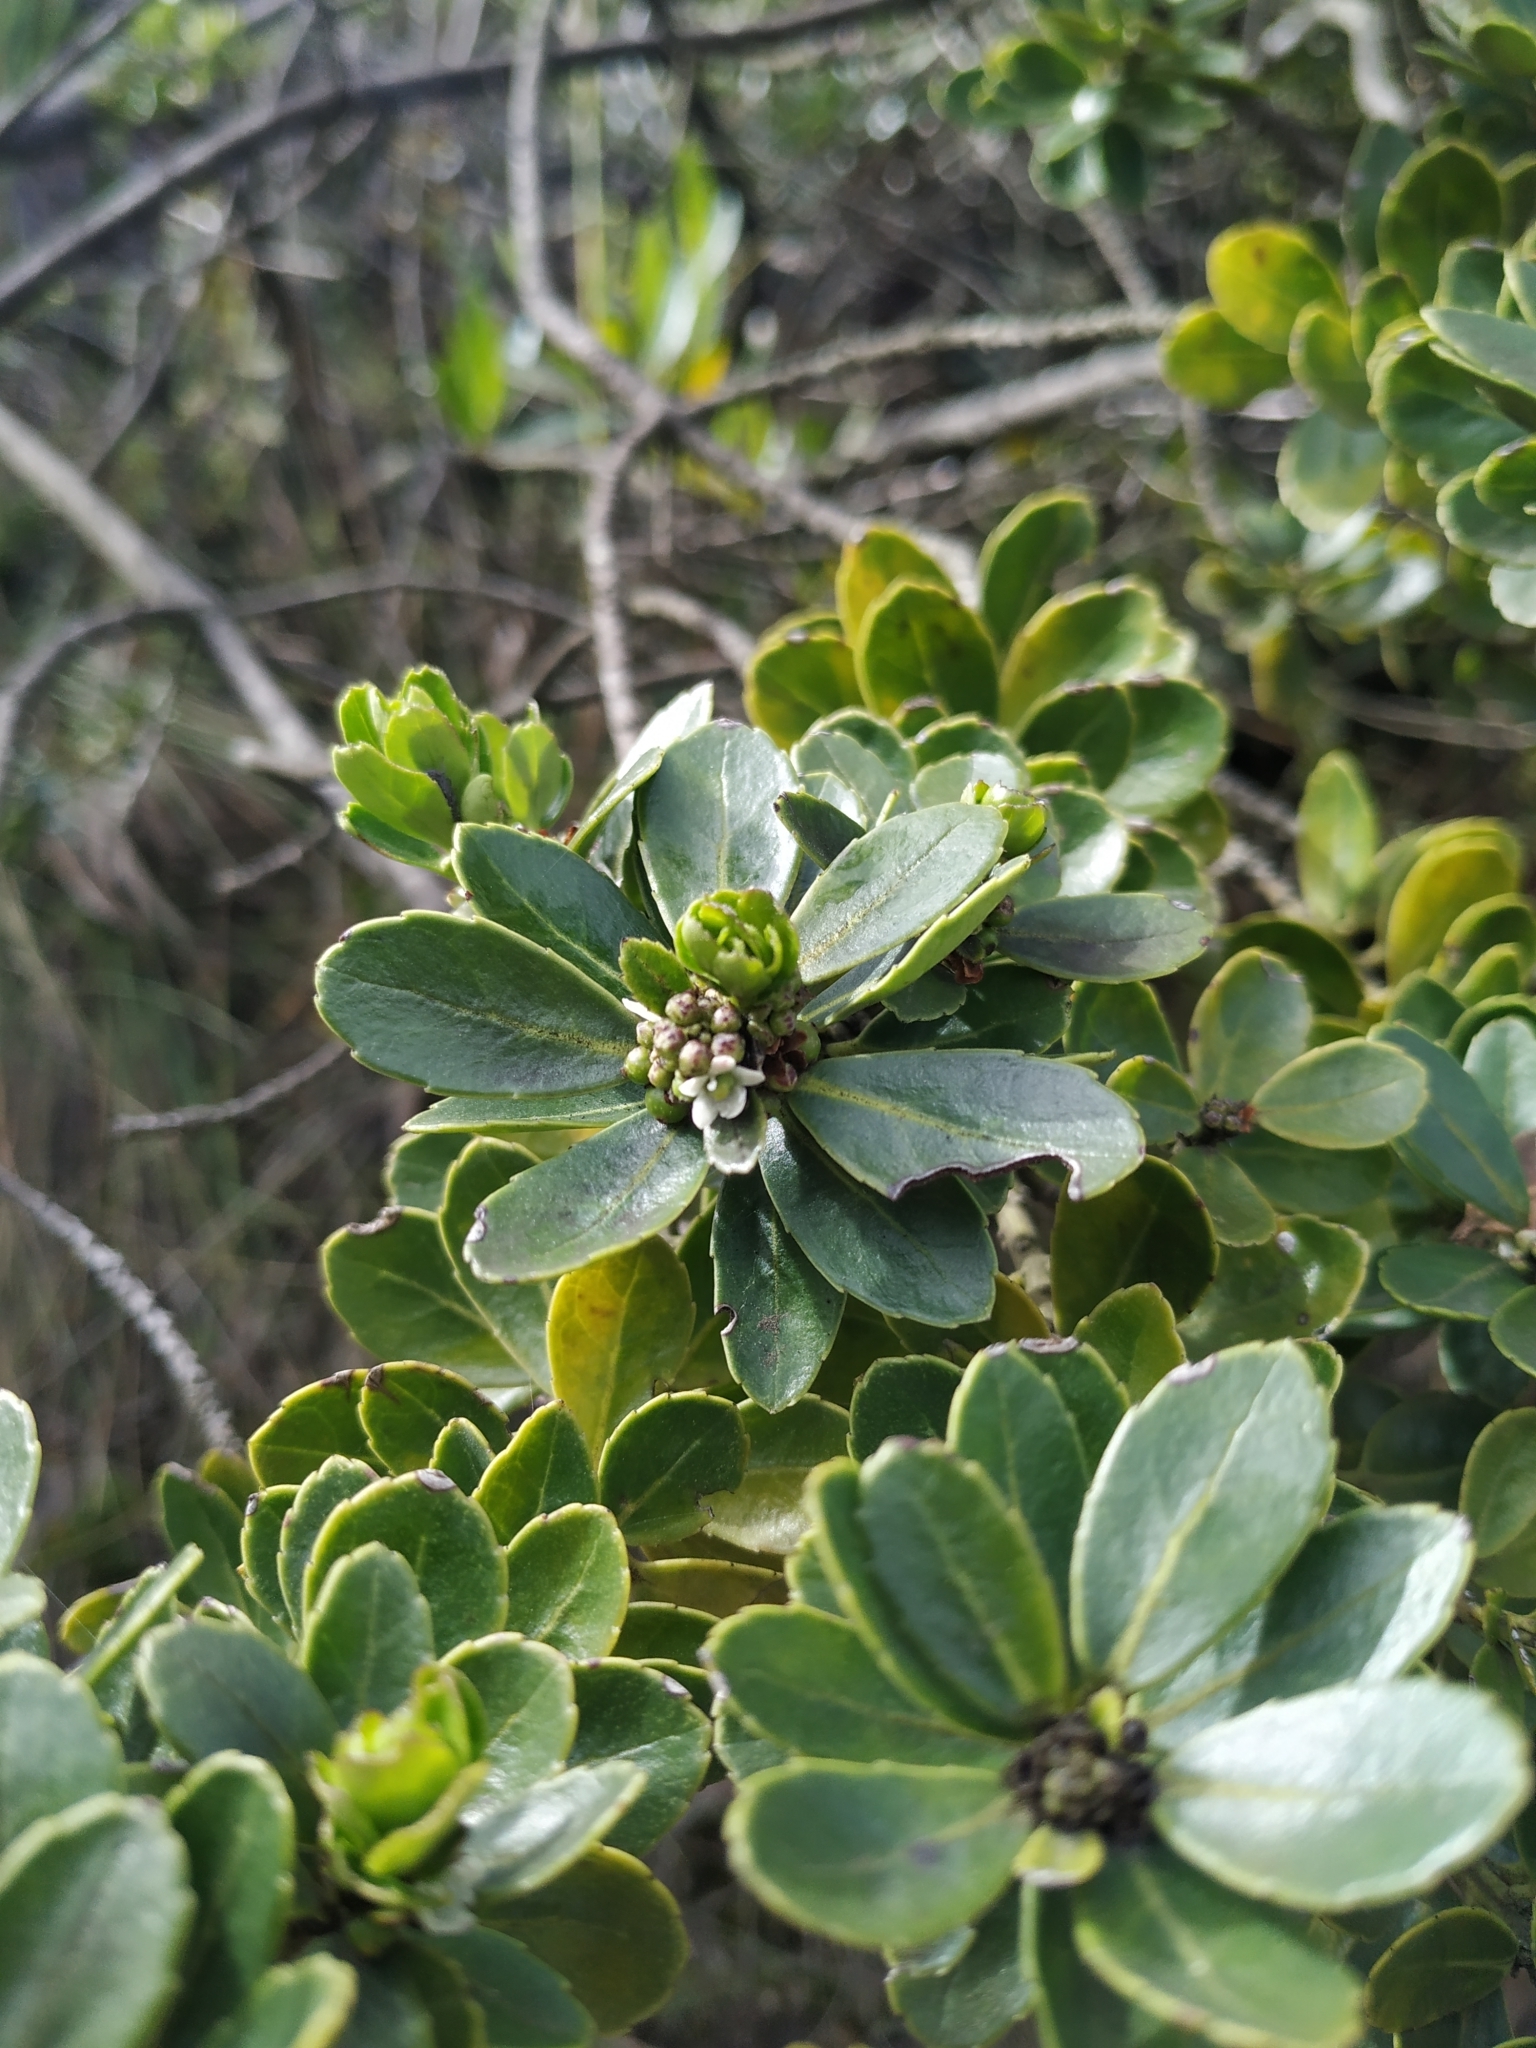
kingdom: Plantae
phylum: Tracheophyta
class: Magnoliopsida
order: Aquifoliales
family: Aquifoliaceae
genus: Ilex
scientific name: Ilex microphylla
